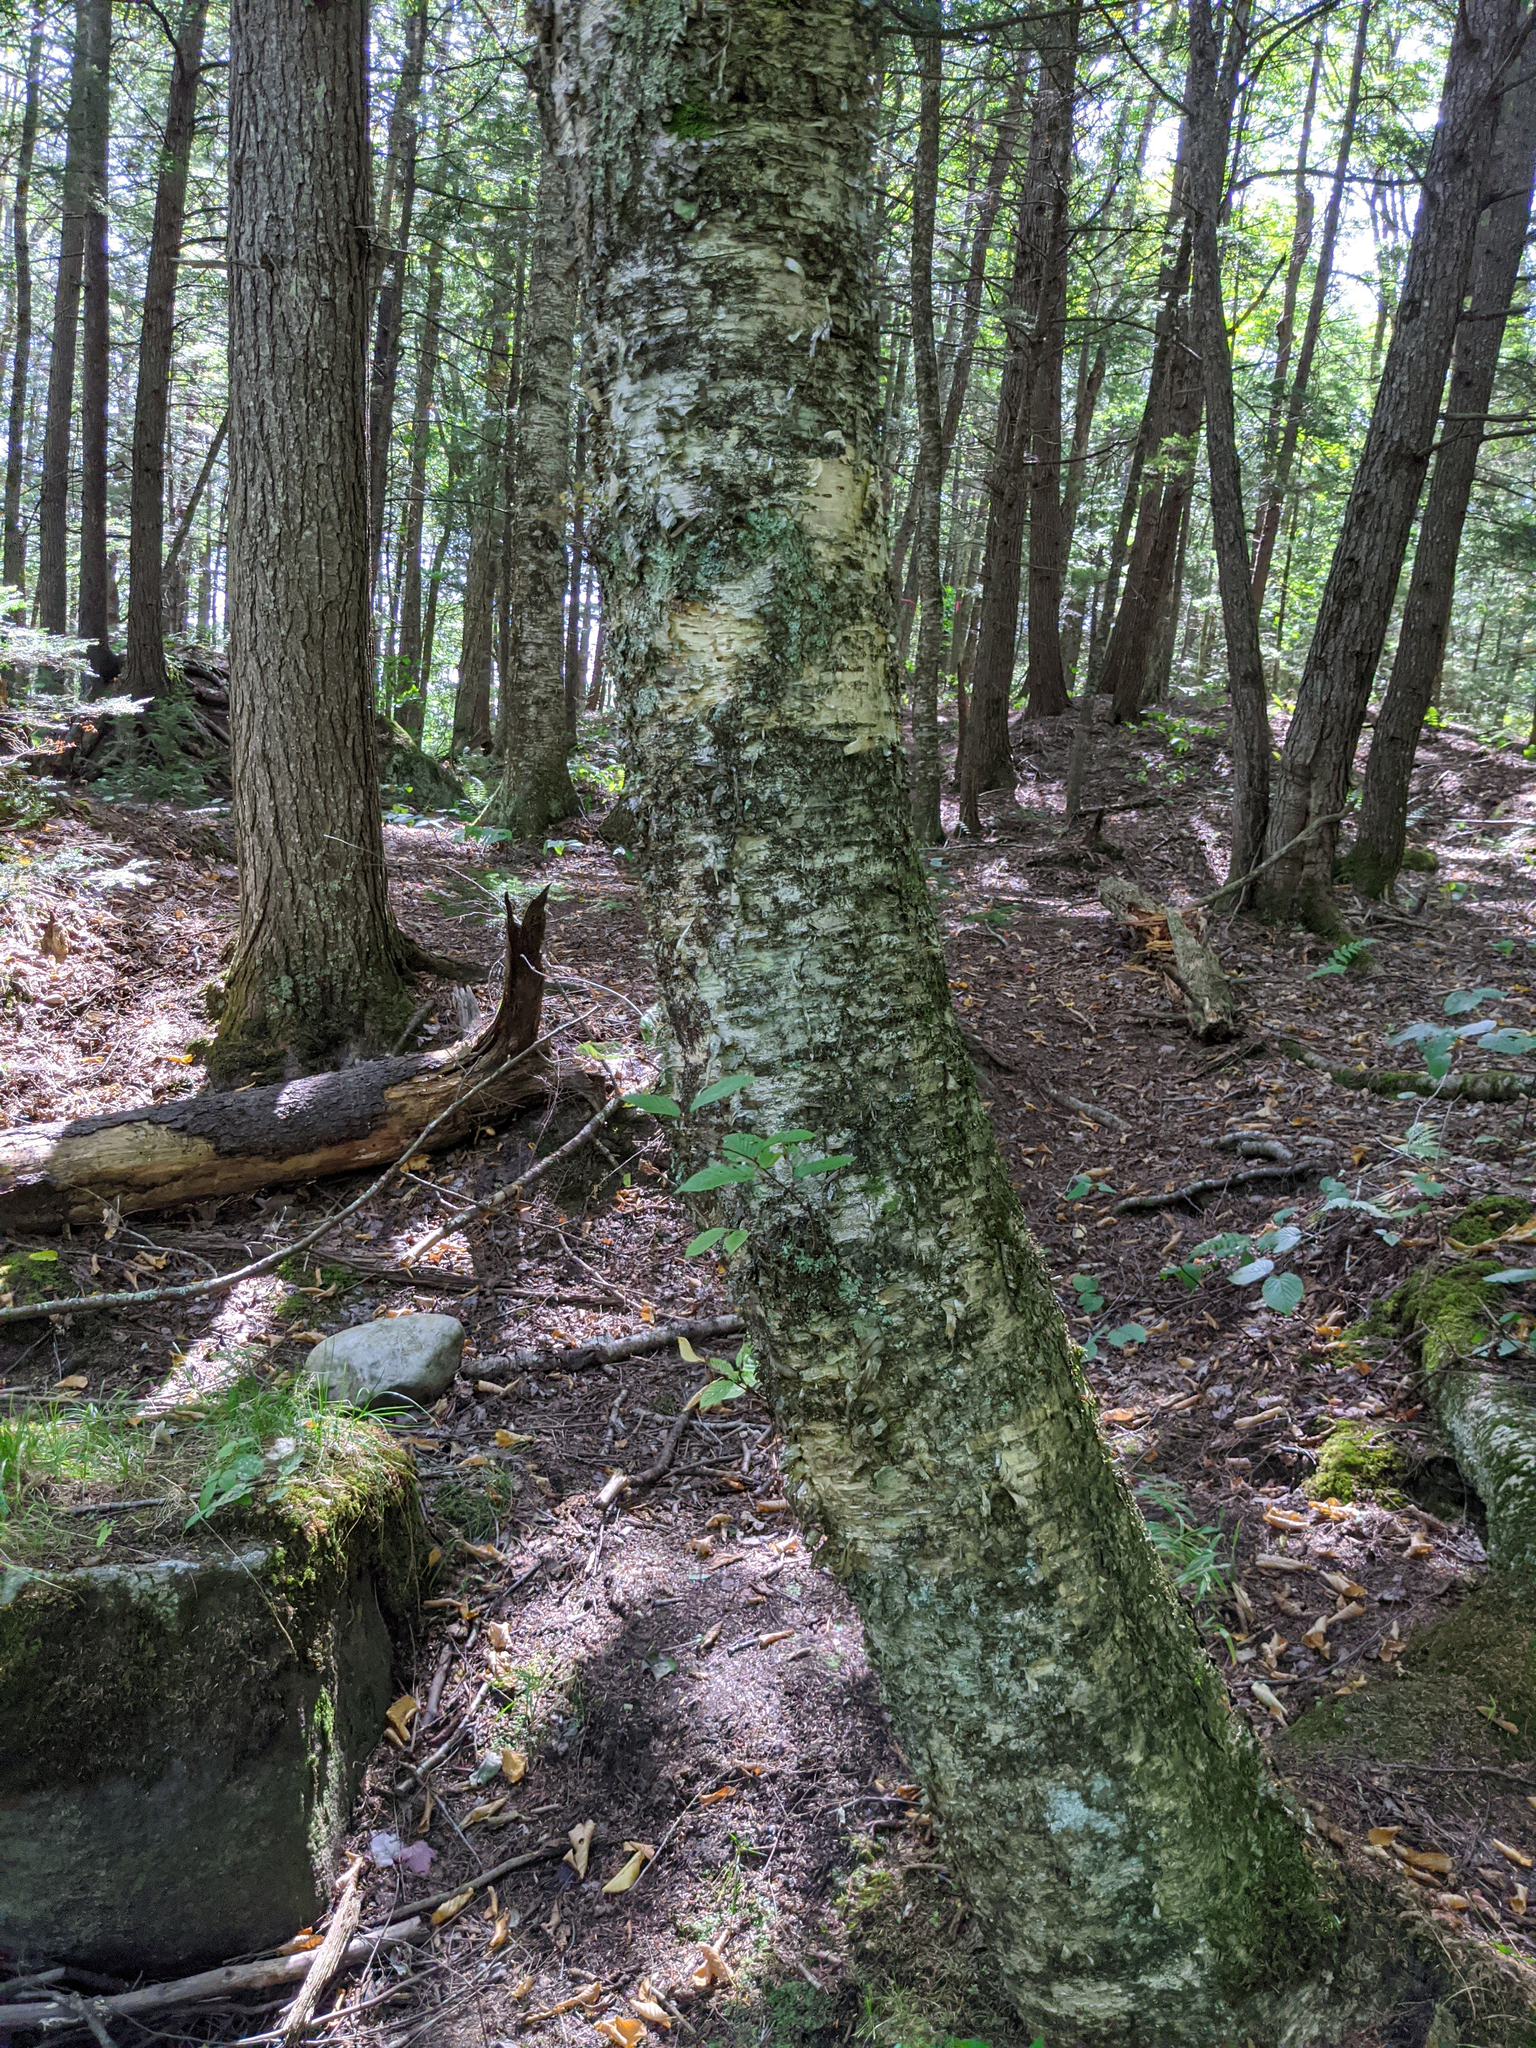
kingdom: Plantae
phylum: Tracheophyta
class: Magnoliopsida
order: Fagales
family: Betulaceae
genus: Betula
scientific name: Betula alleghaniensis
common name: Yellow birch
